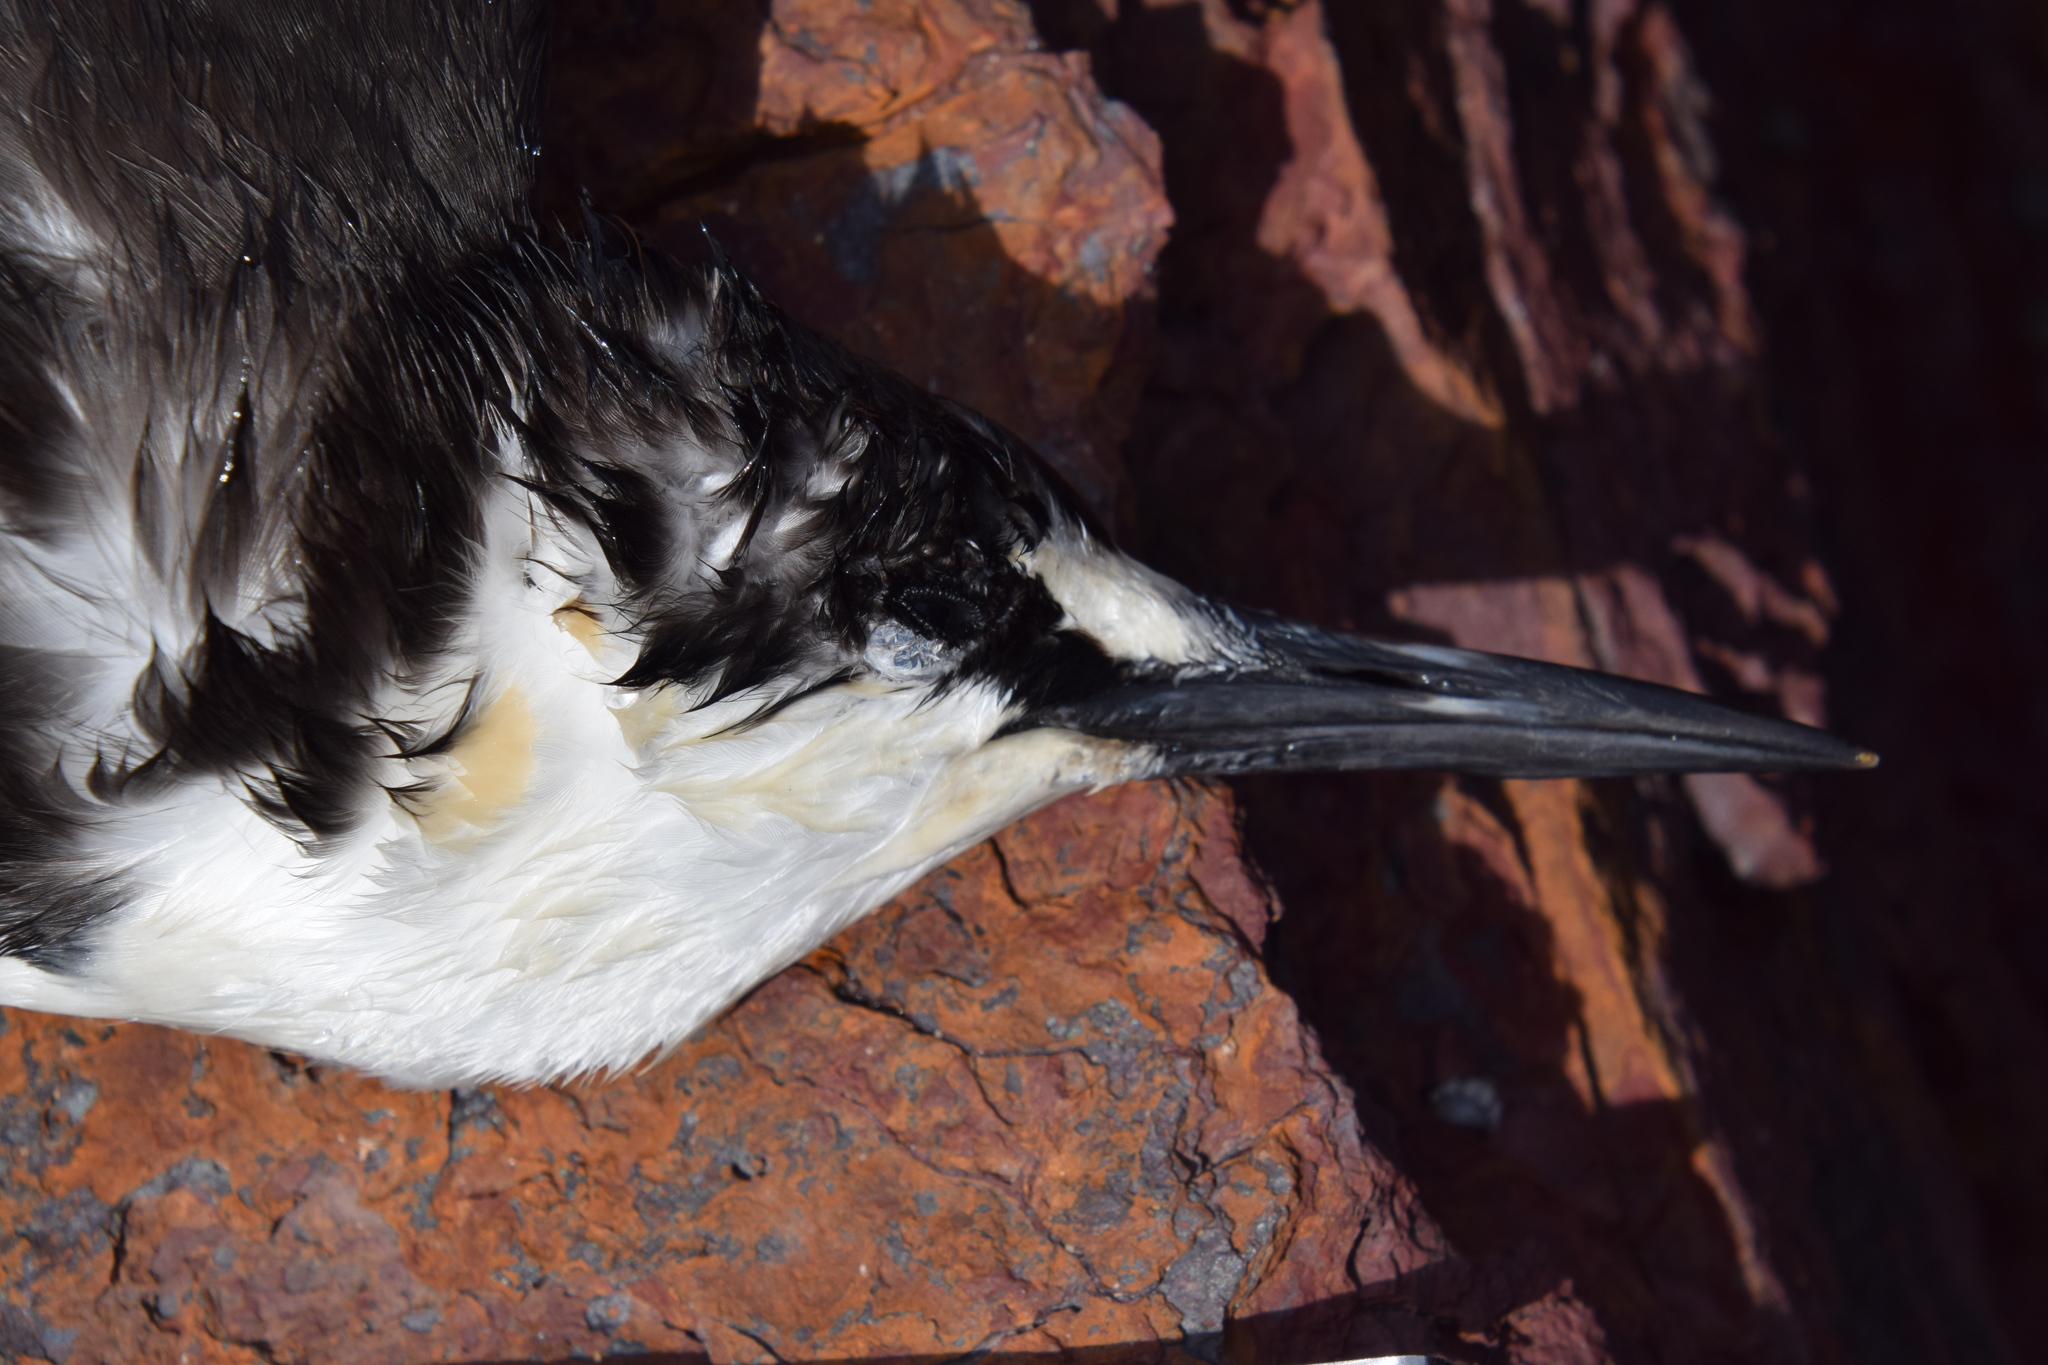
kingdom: Animalia
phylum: Chordata
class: Aves
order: Charadriiformes
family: Laridae
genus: Onychoprion
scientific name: Onychoprion fuscatus
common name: Sooty tern
